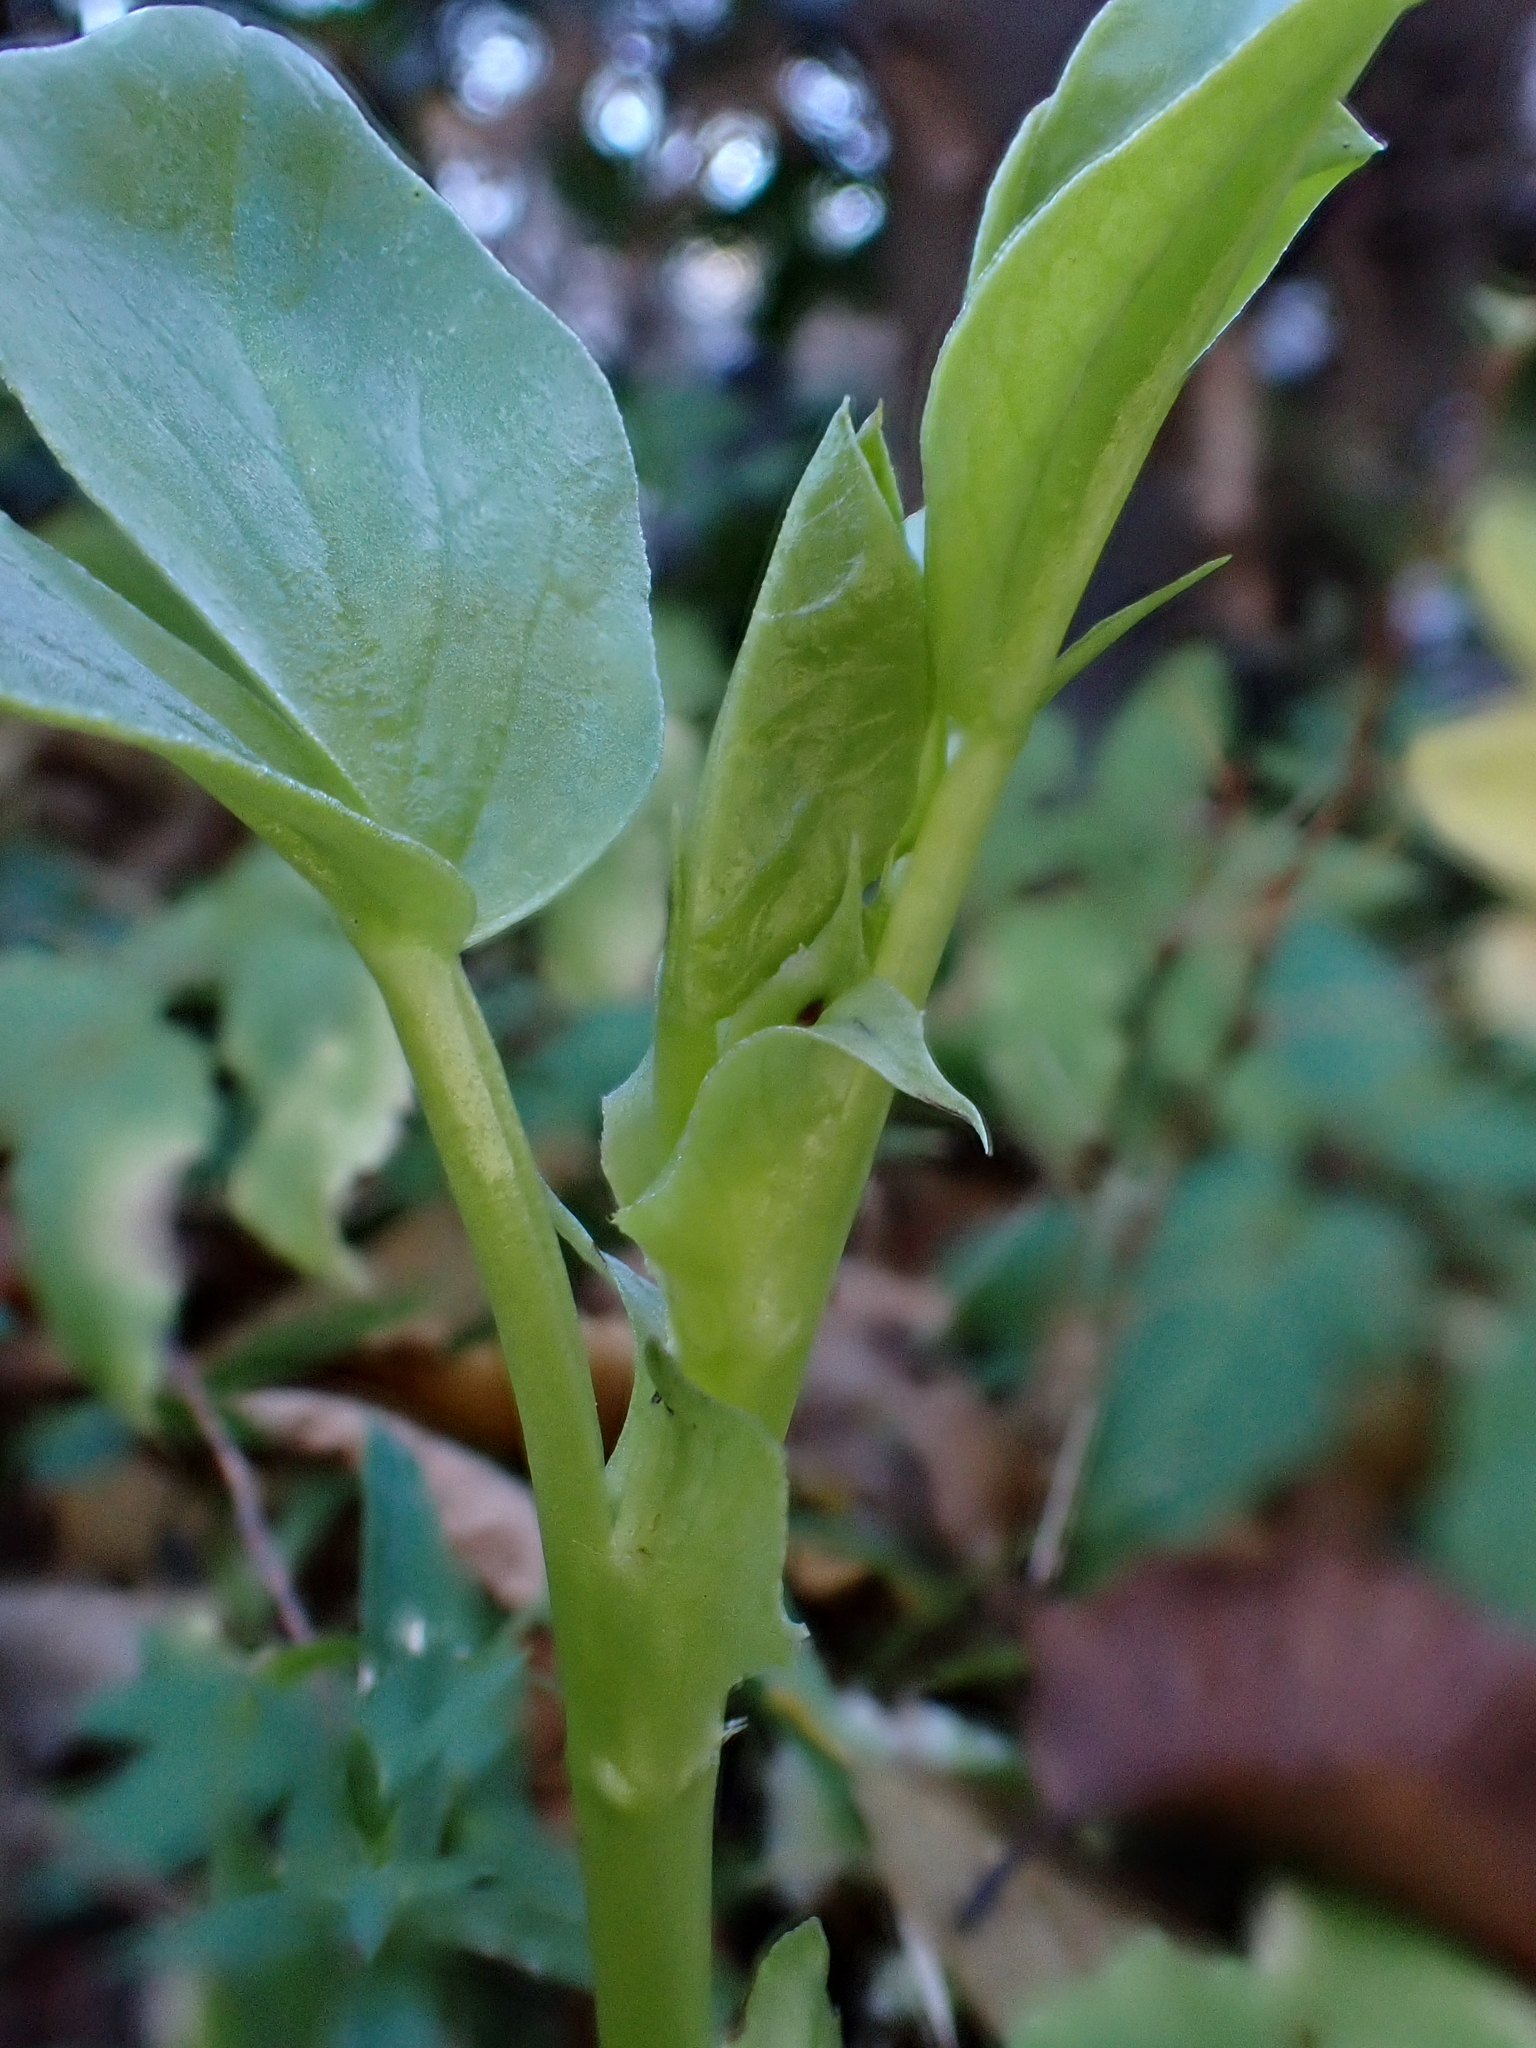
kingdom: Plantae
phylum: Tracheophyta
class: Magnoliopsida
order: Fabales
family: Fabaceae
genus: Vicia
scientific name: Vicia faba
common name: Broad bean
